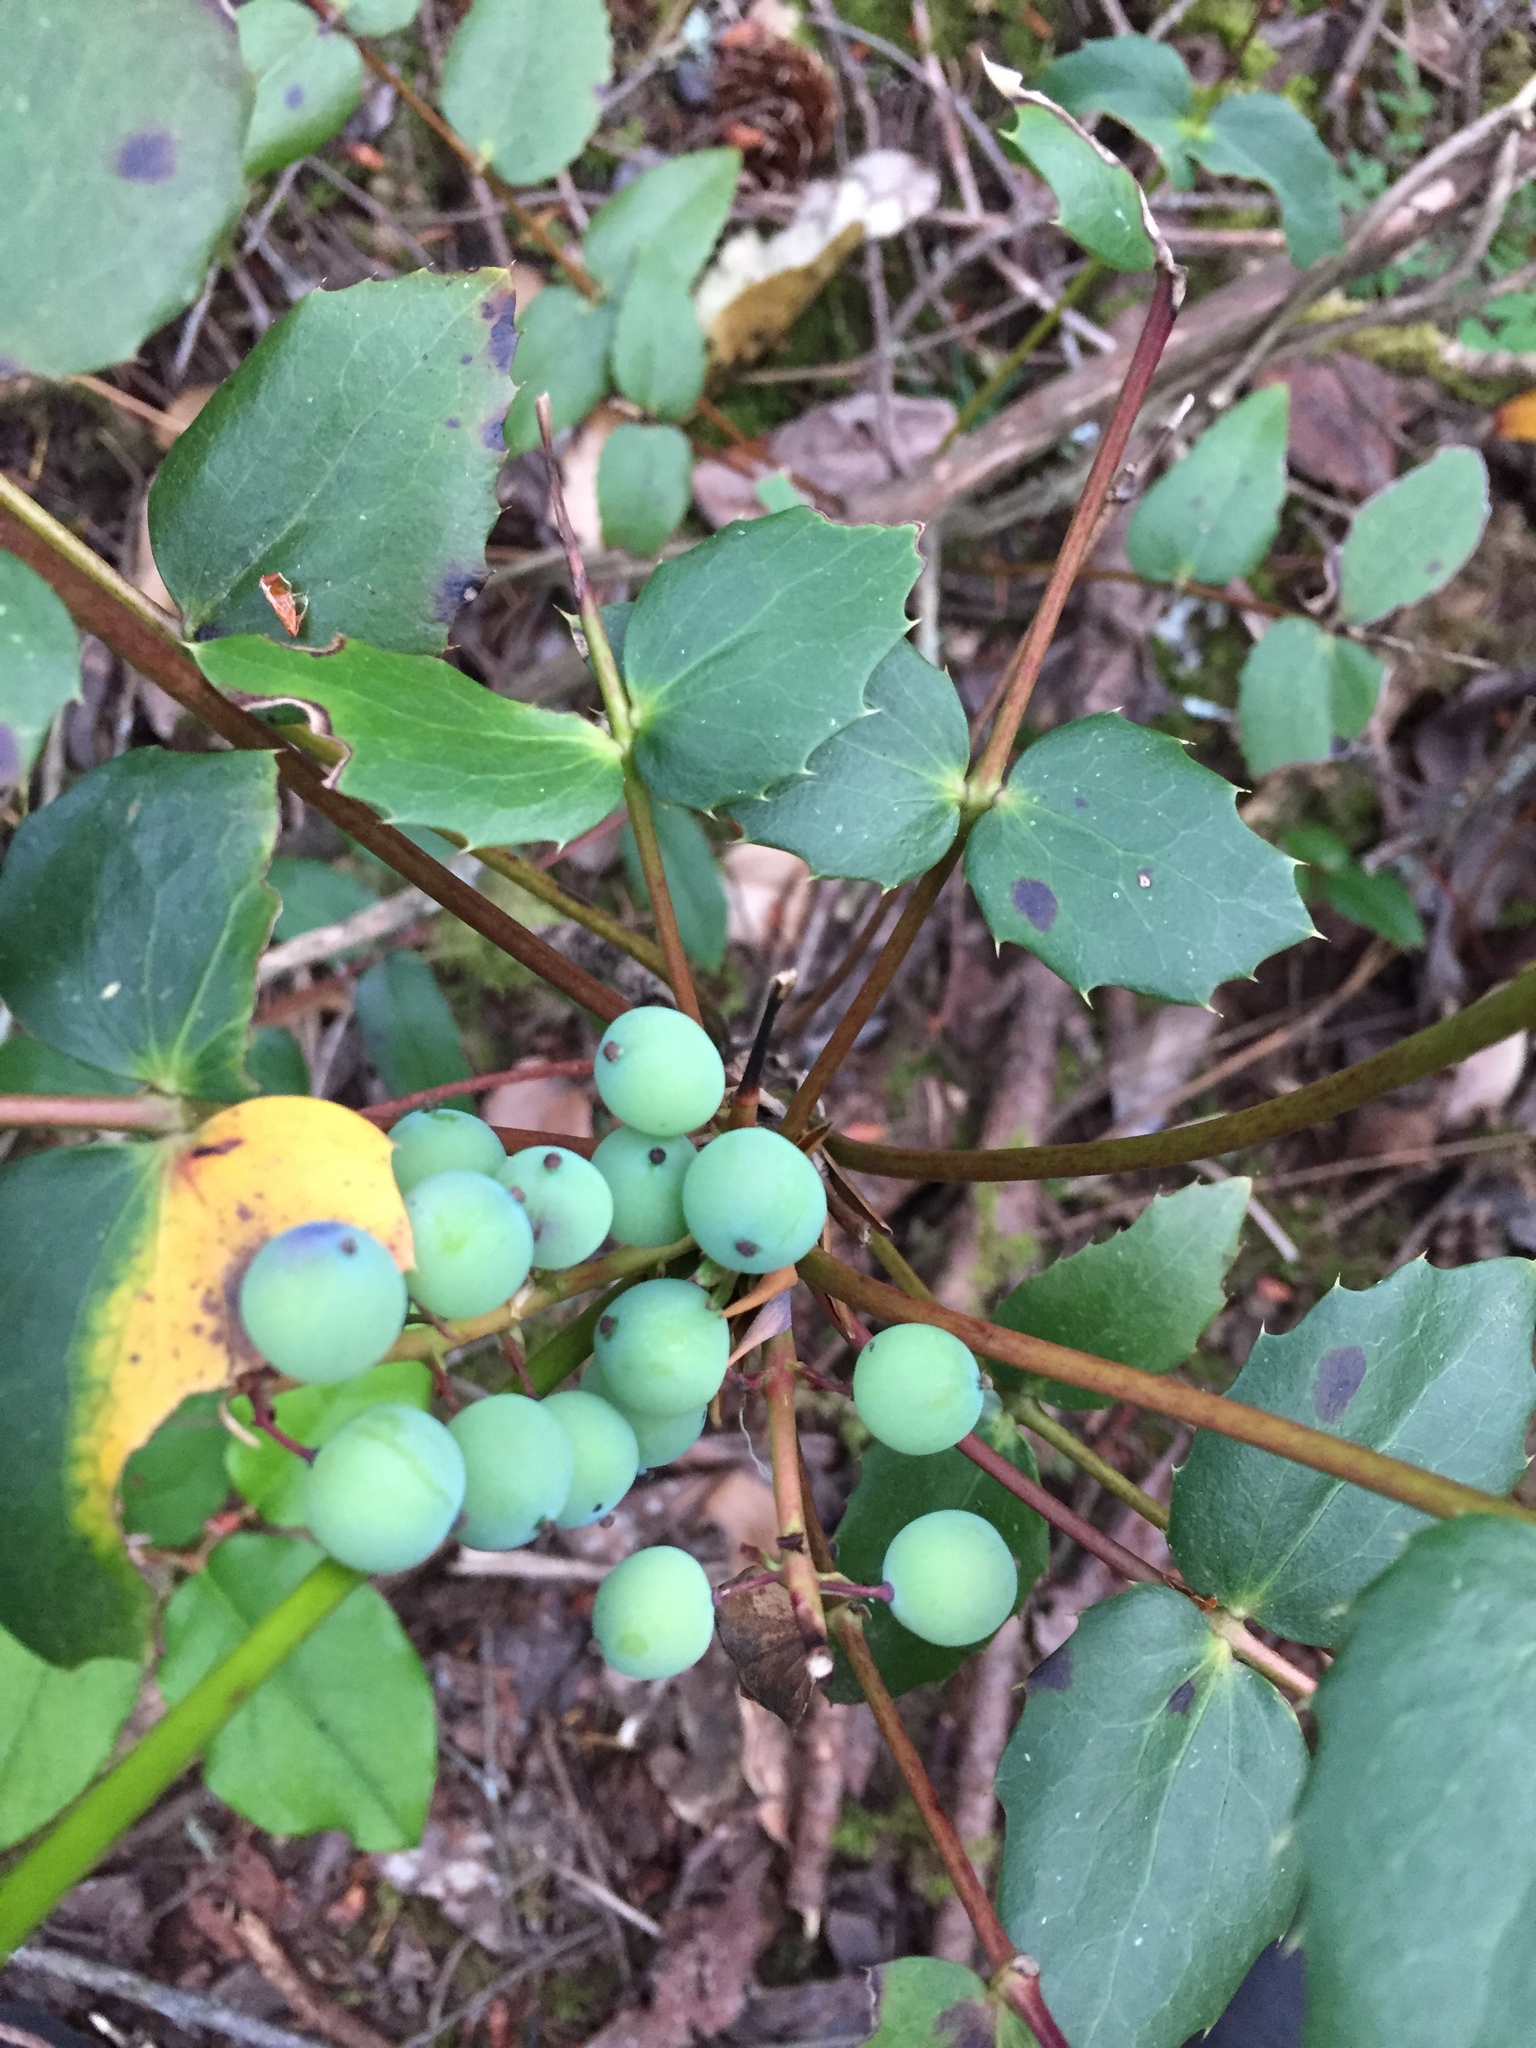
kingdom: Plantae
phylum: Tracheophyta
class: Magnoliopsida
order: Ranunculales
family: Berberidaceae
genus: Mahonia
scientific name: Mahonia nervosa
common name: Cascade oregon-grape
